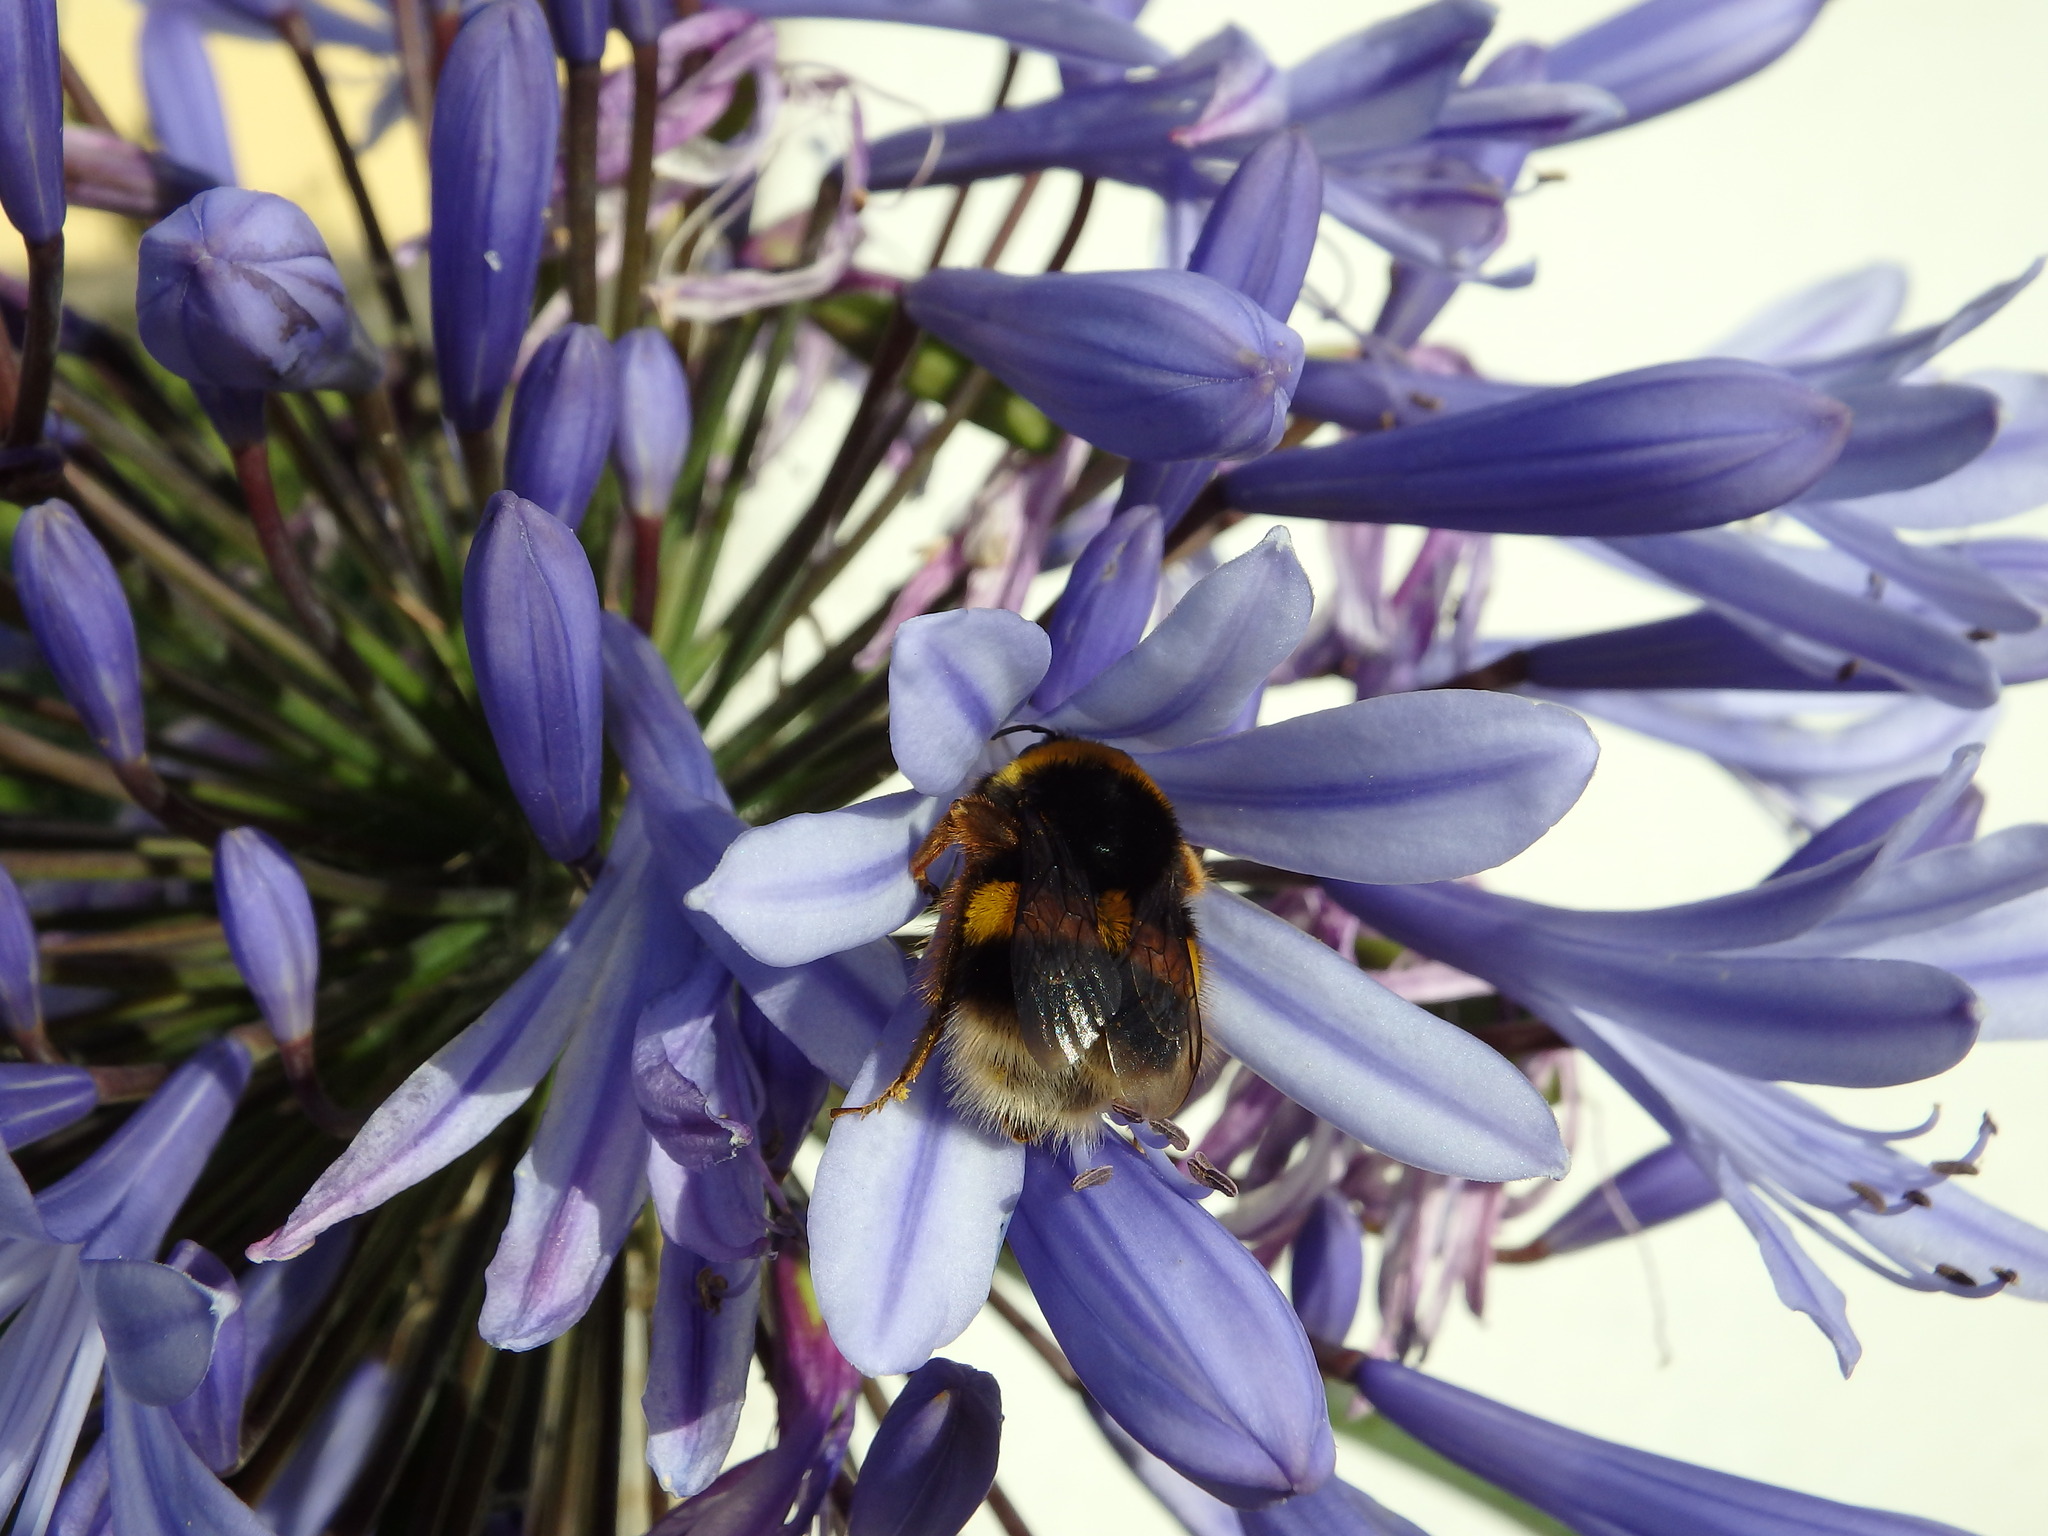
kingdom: Animalia
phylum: Arthropoda
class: Insecta
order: Hymenoptera
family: Apidae
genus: Bombus
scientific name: Bombus terrestris
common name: Buff-tailed bumblebee
